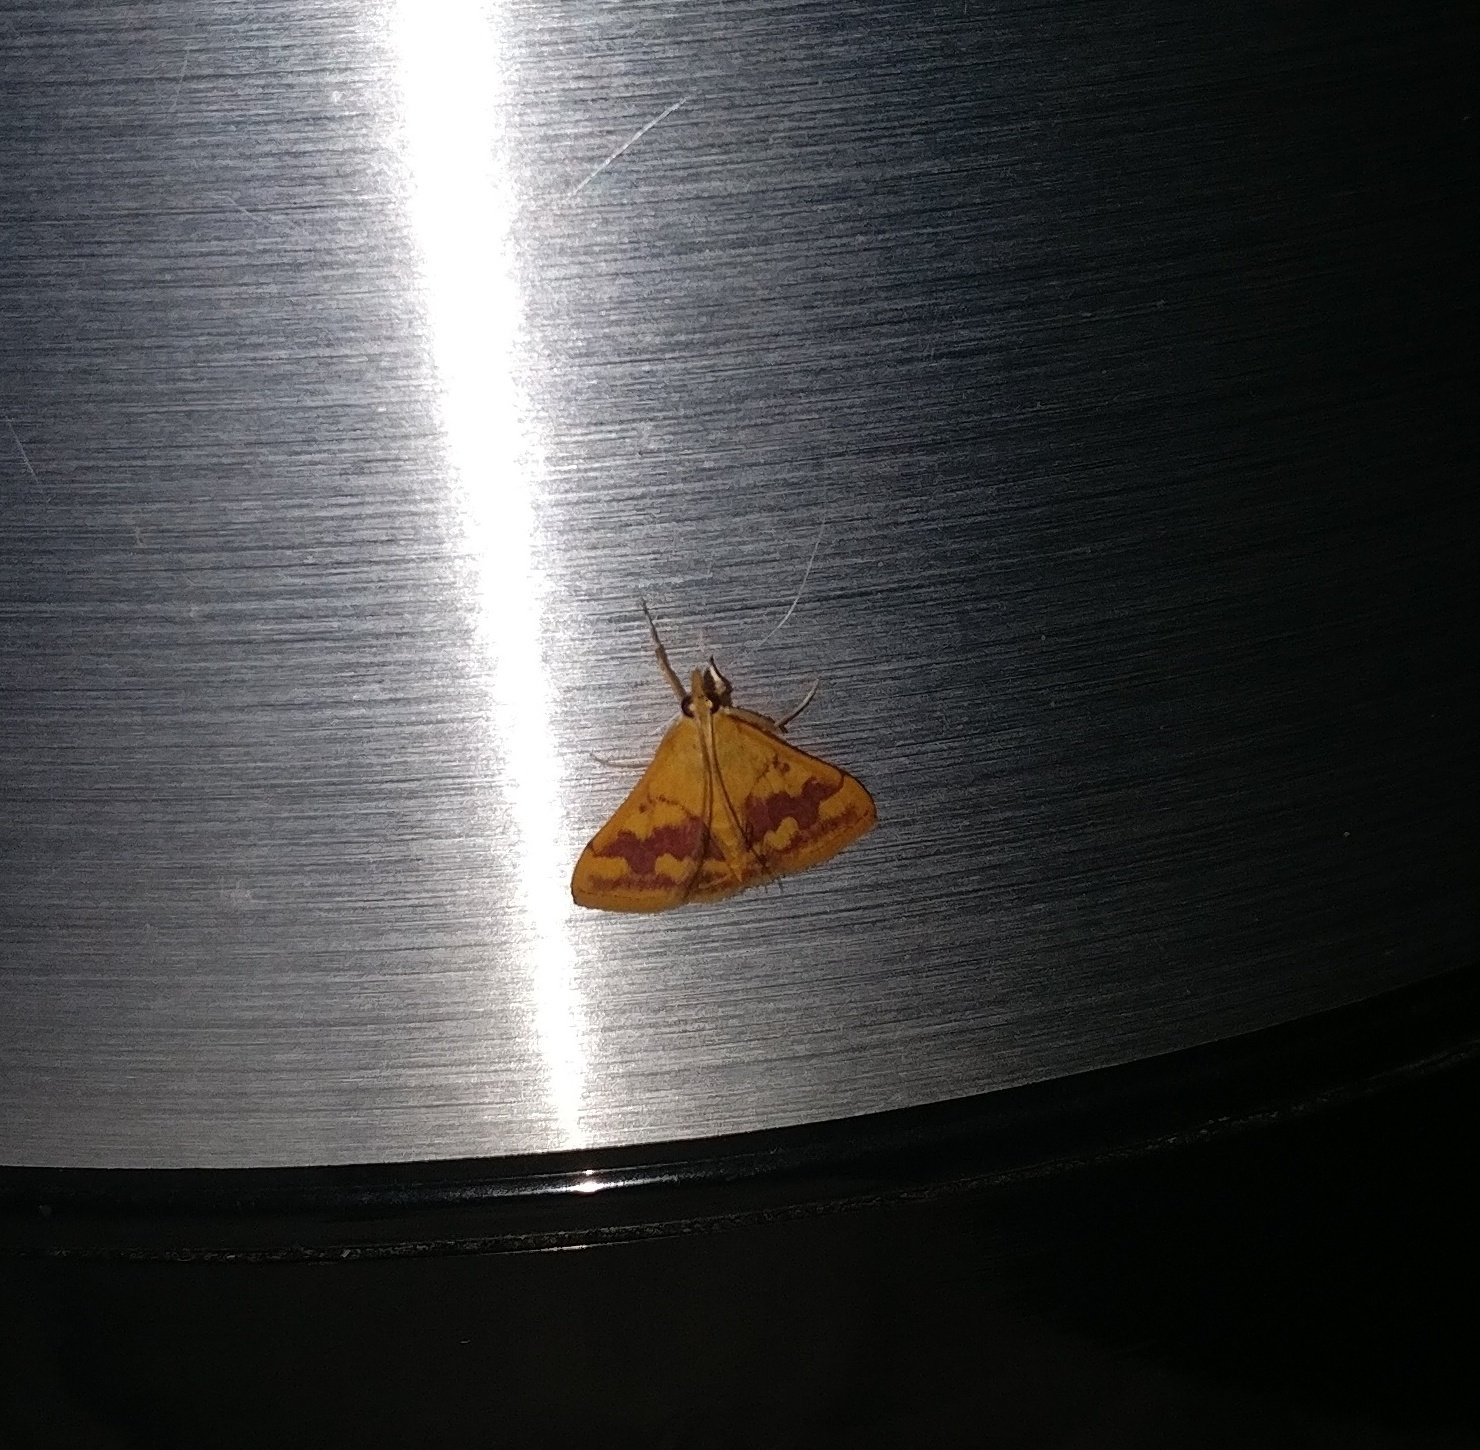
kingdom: Animalia
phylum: Arthropoda
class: Insecta
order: Lepidoptera
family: Crambidae
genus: Pyrausta
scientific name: Pyrausta phoenicealis
